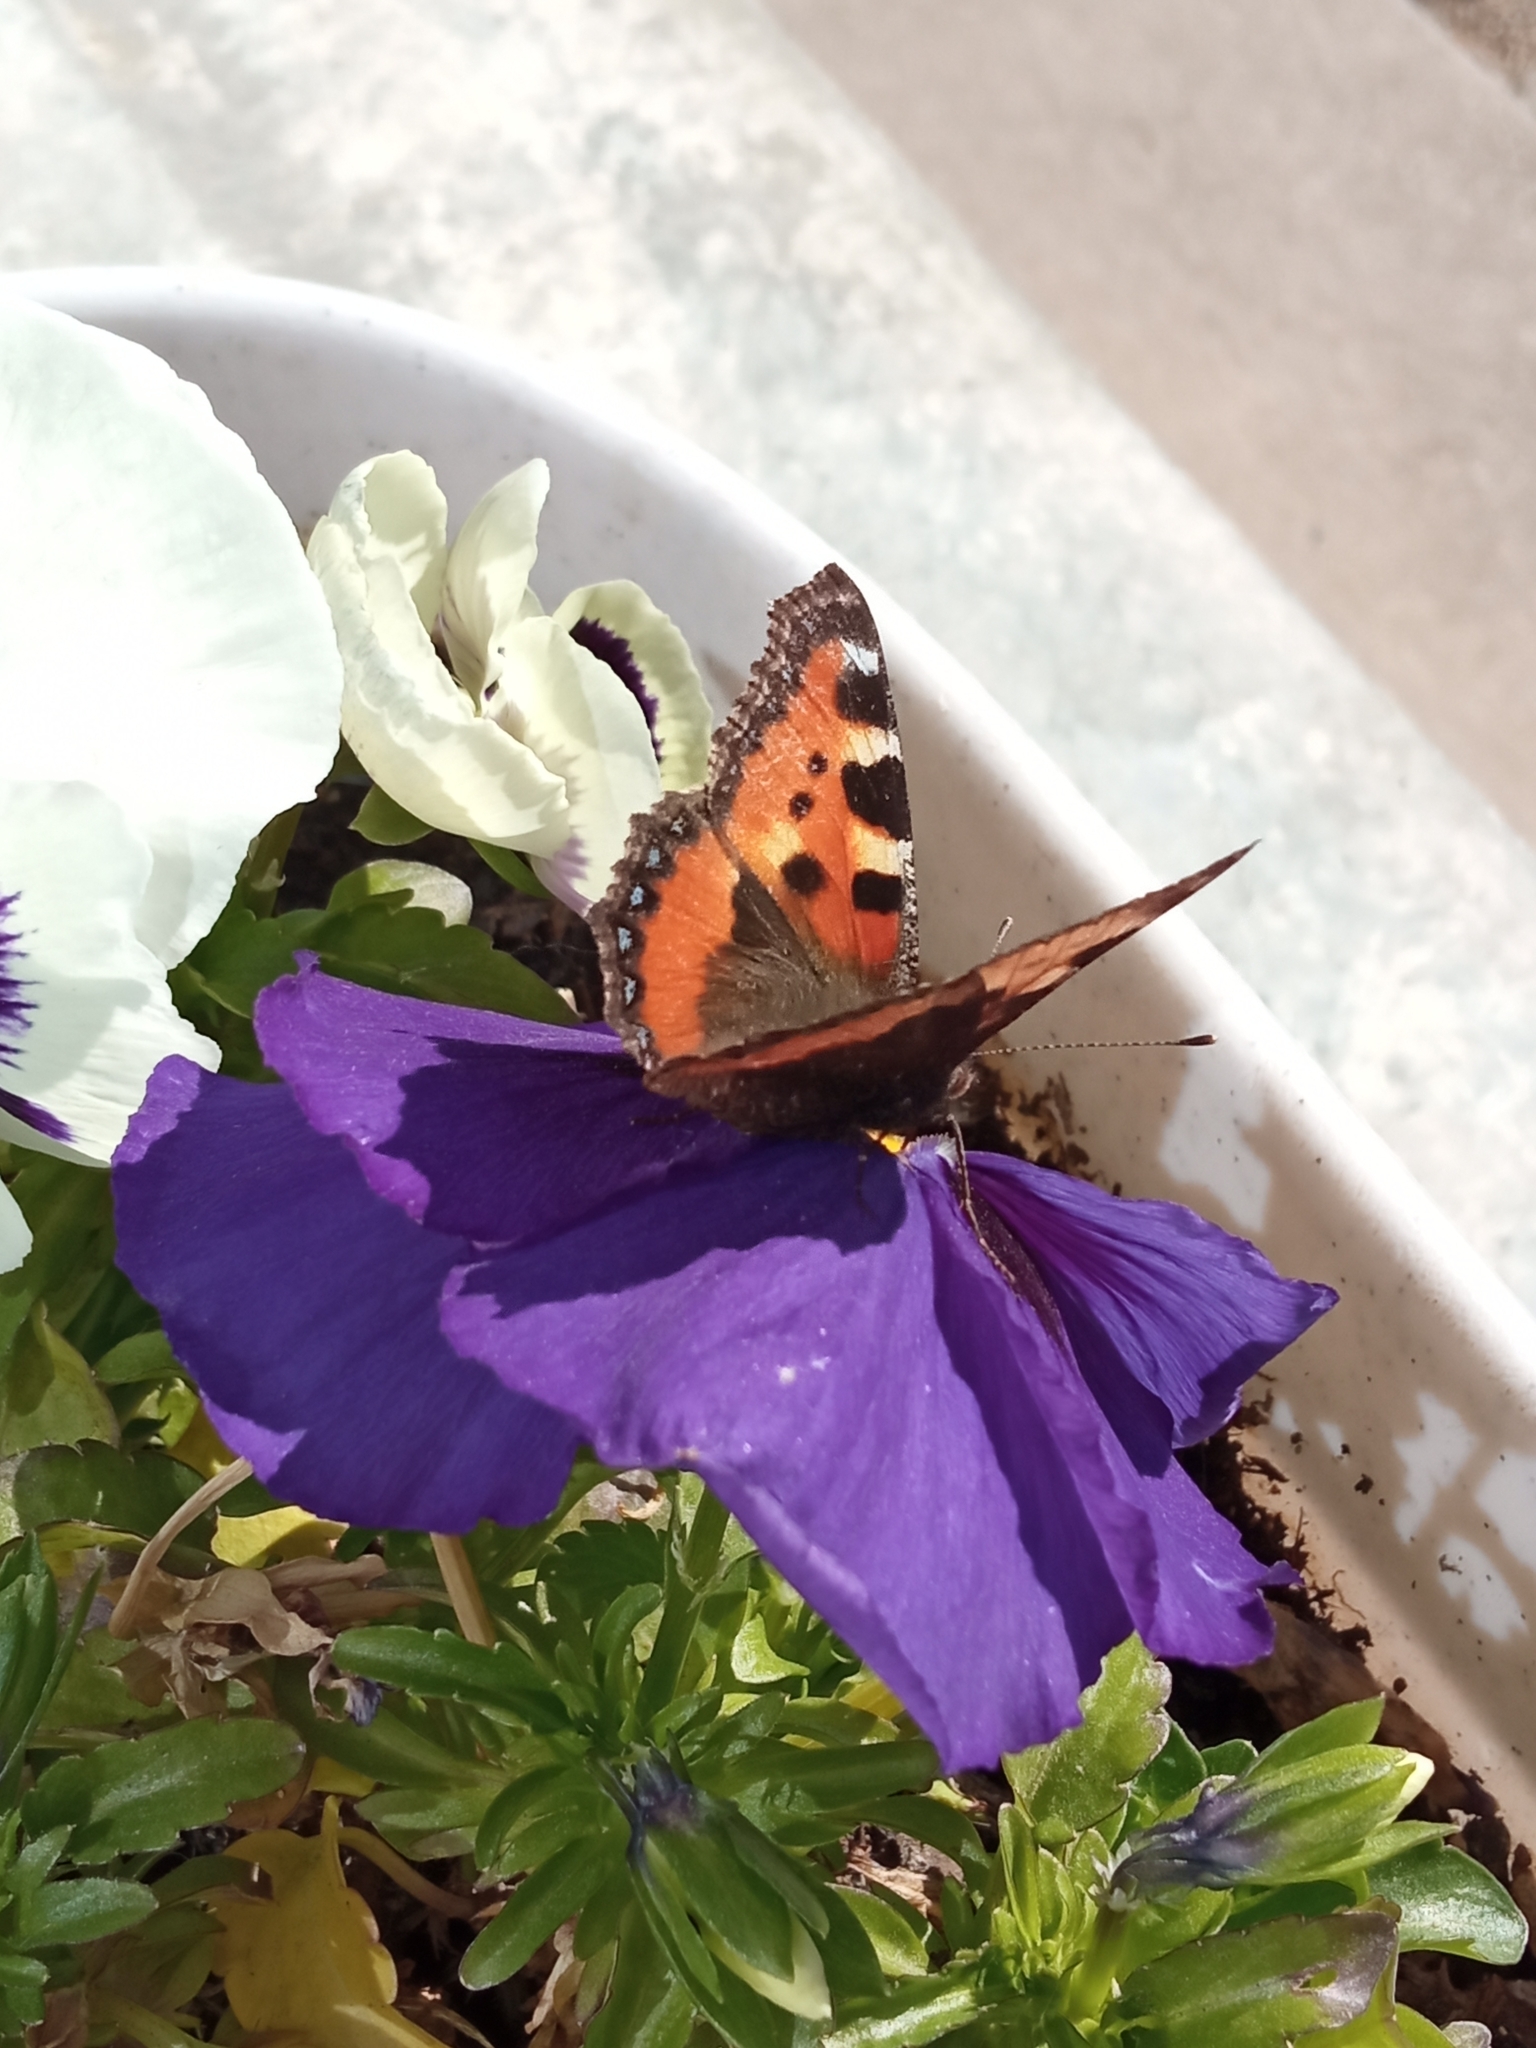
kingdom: Animalia
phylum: Arthropoda
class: Insecta
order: Lepidoptera
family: Nymphalidae
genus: Aglais
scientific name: Aglais urticae
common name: Small tortoiseshell
